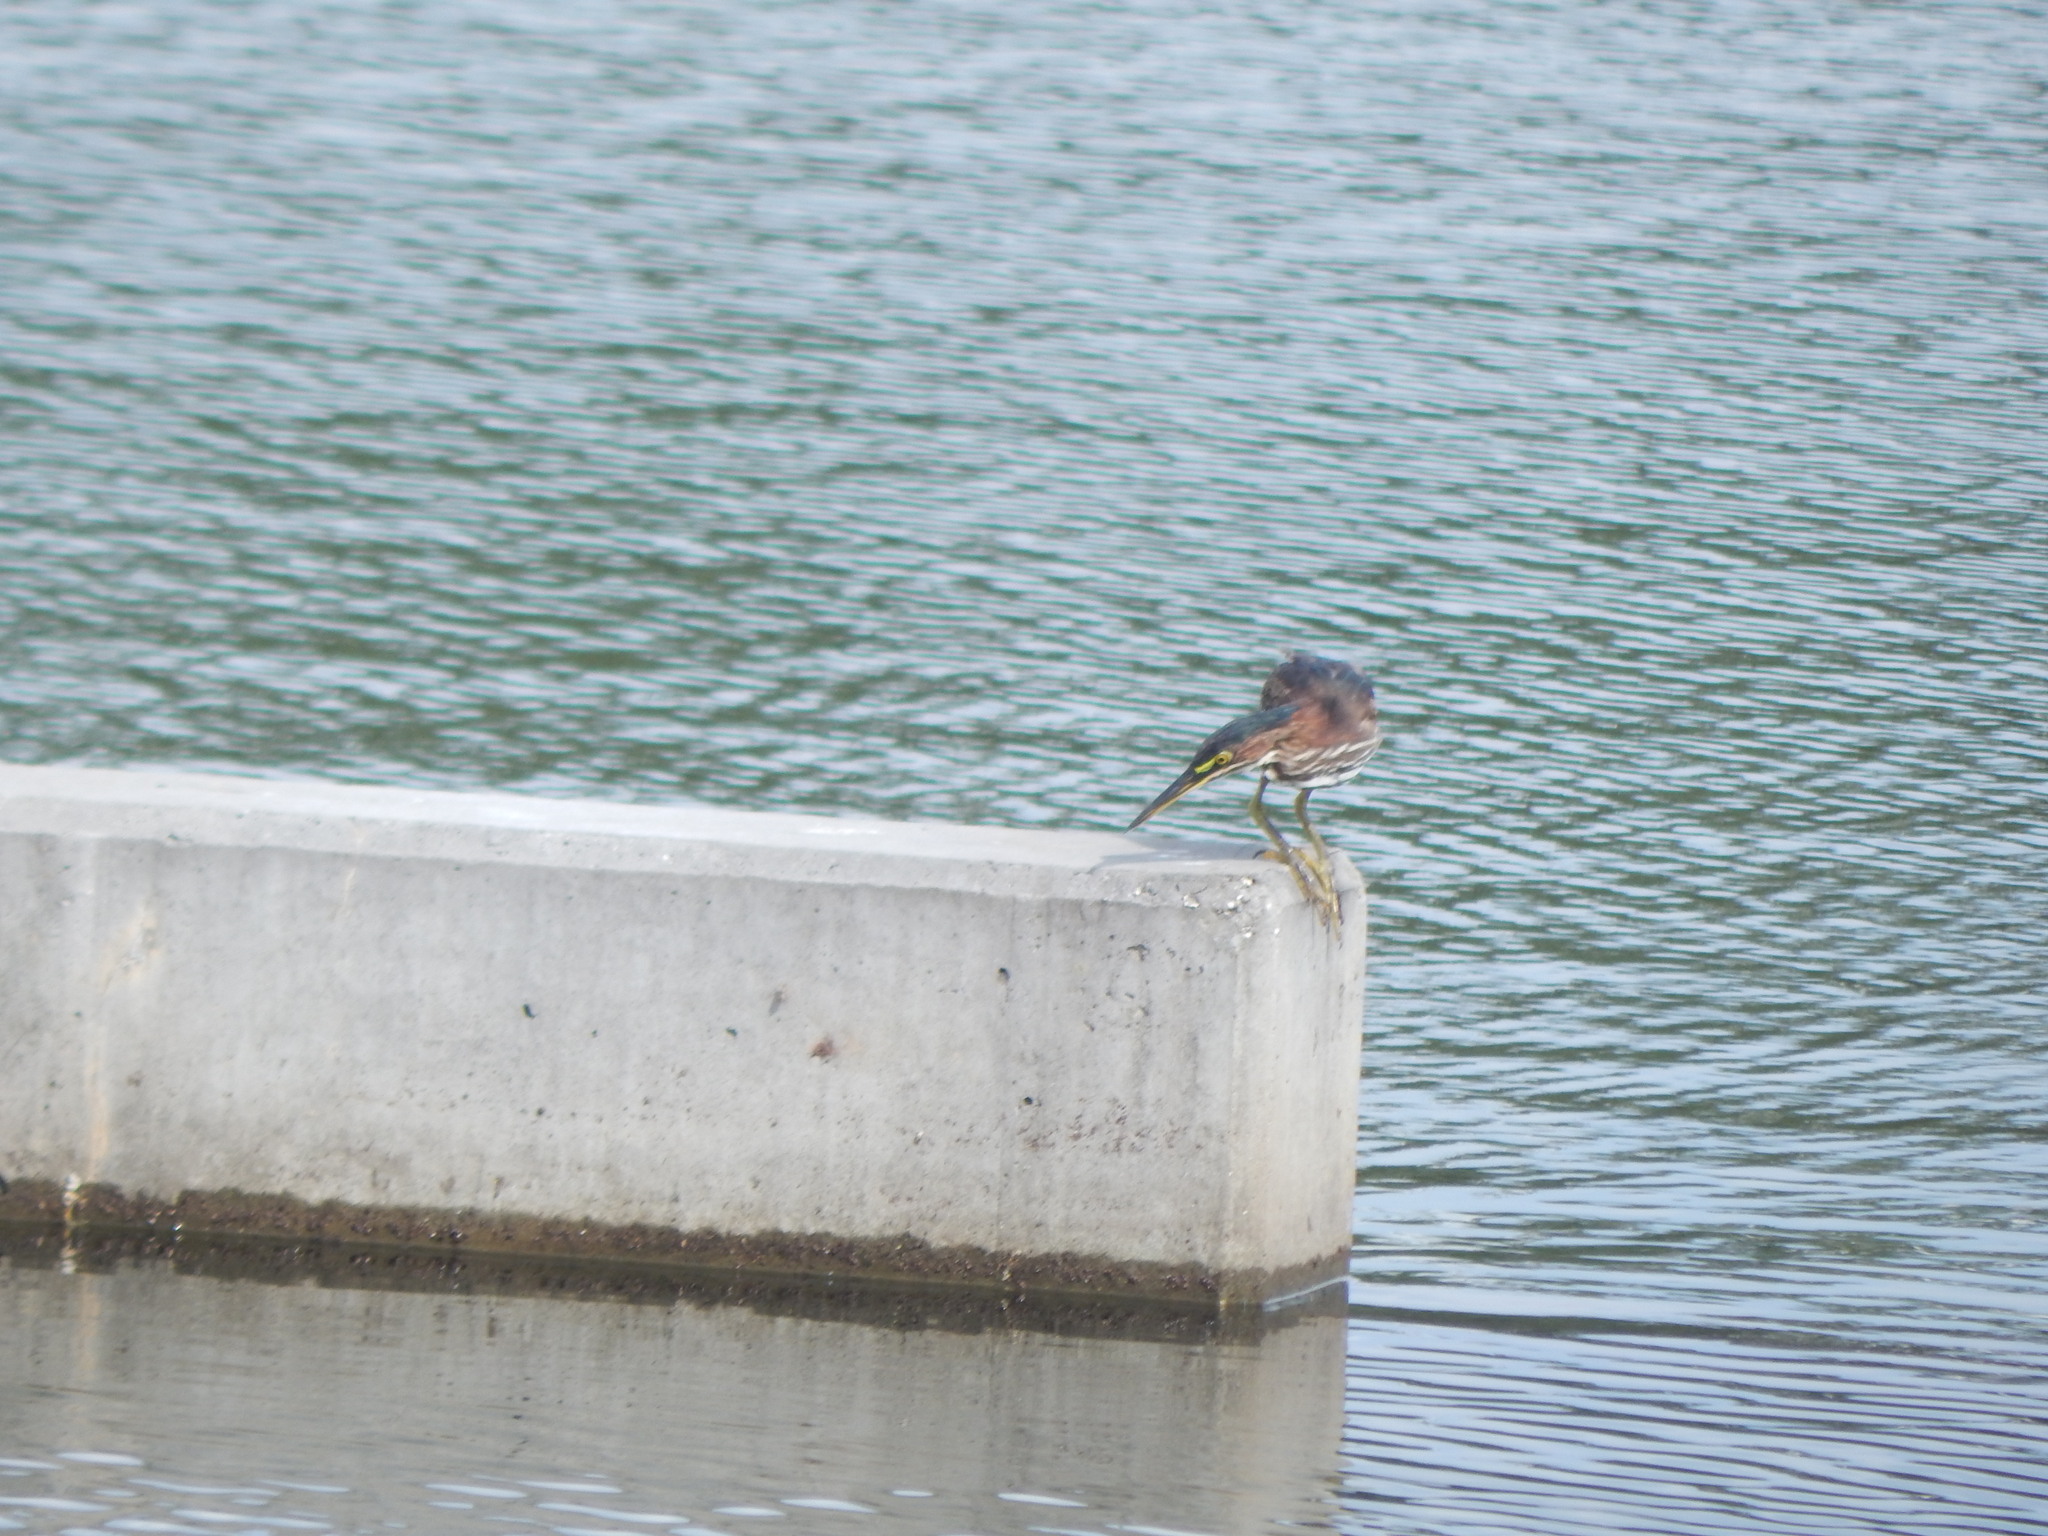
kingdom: Animalia
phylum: Chordata
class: Aves
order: Pelecaniformes
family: Ardeidae
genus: Butorides
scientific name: Butorides virescens
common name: Green heron
